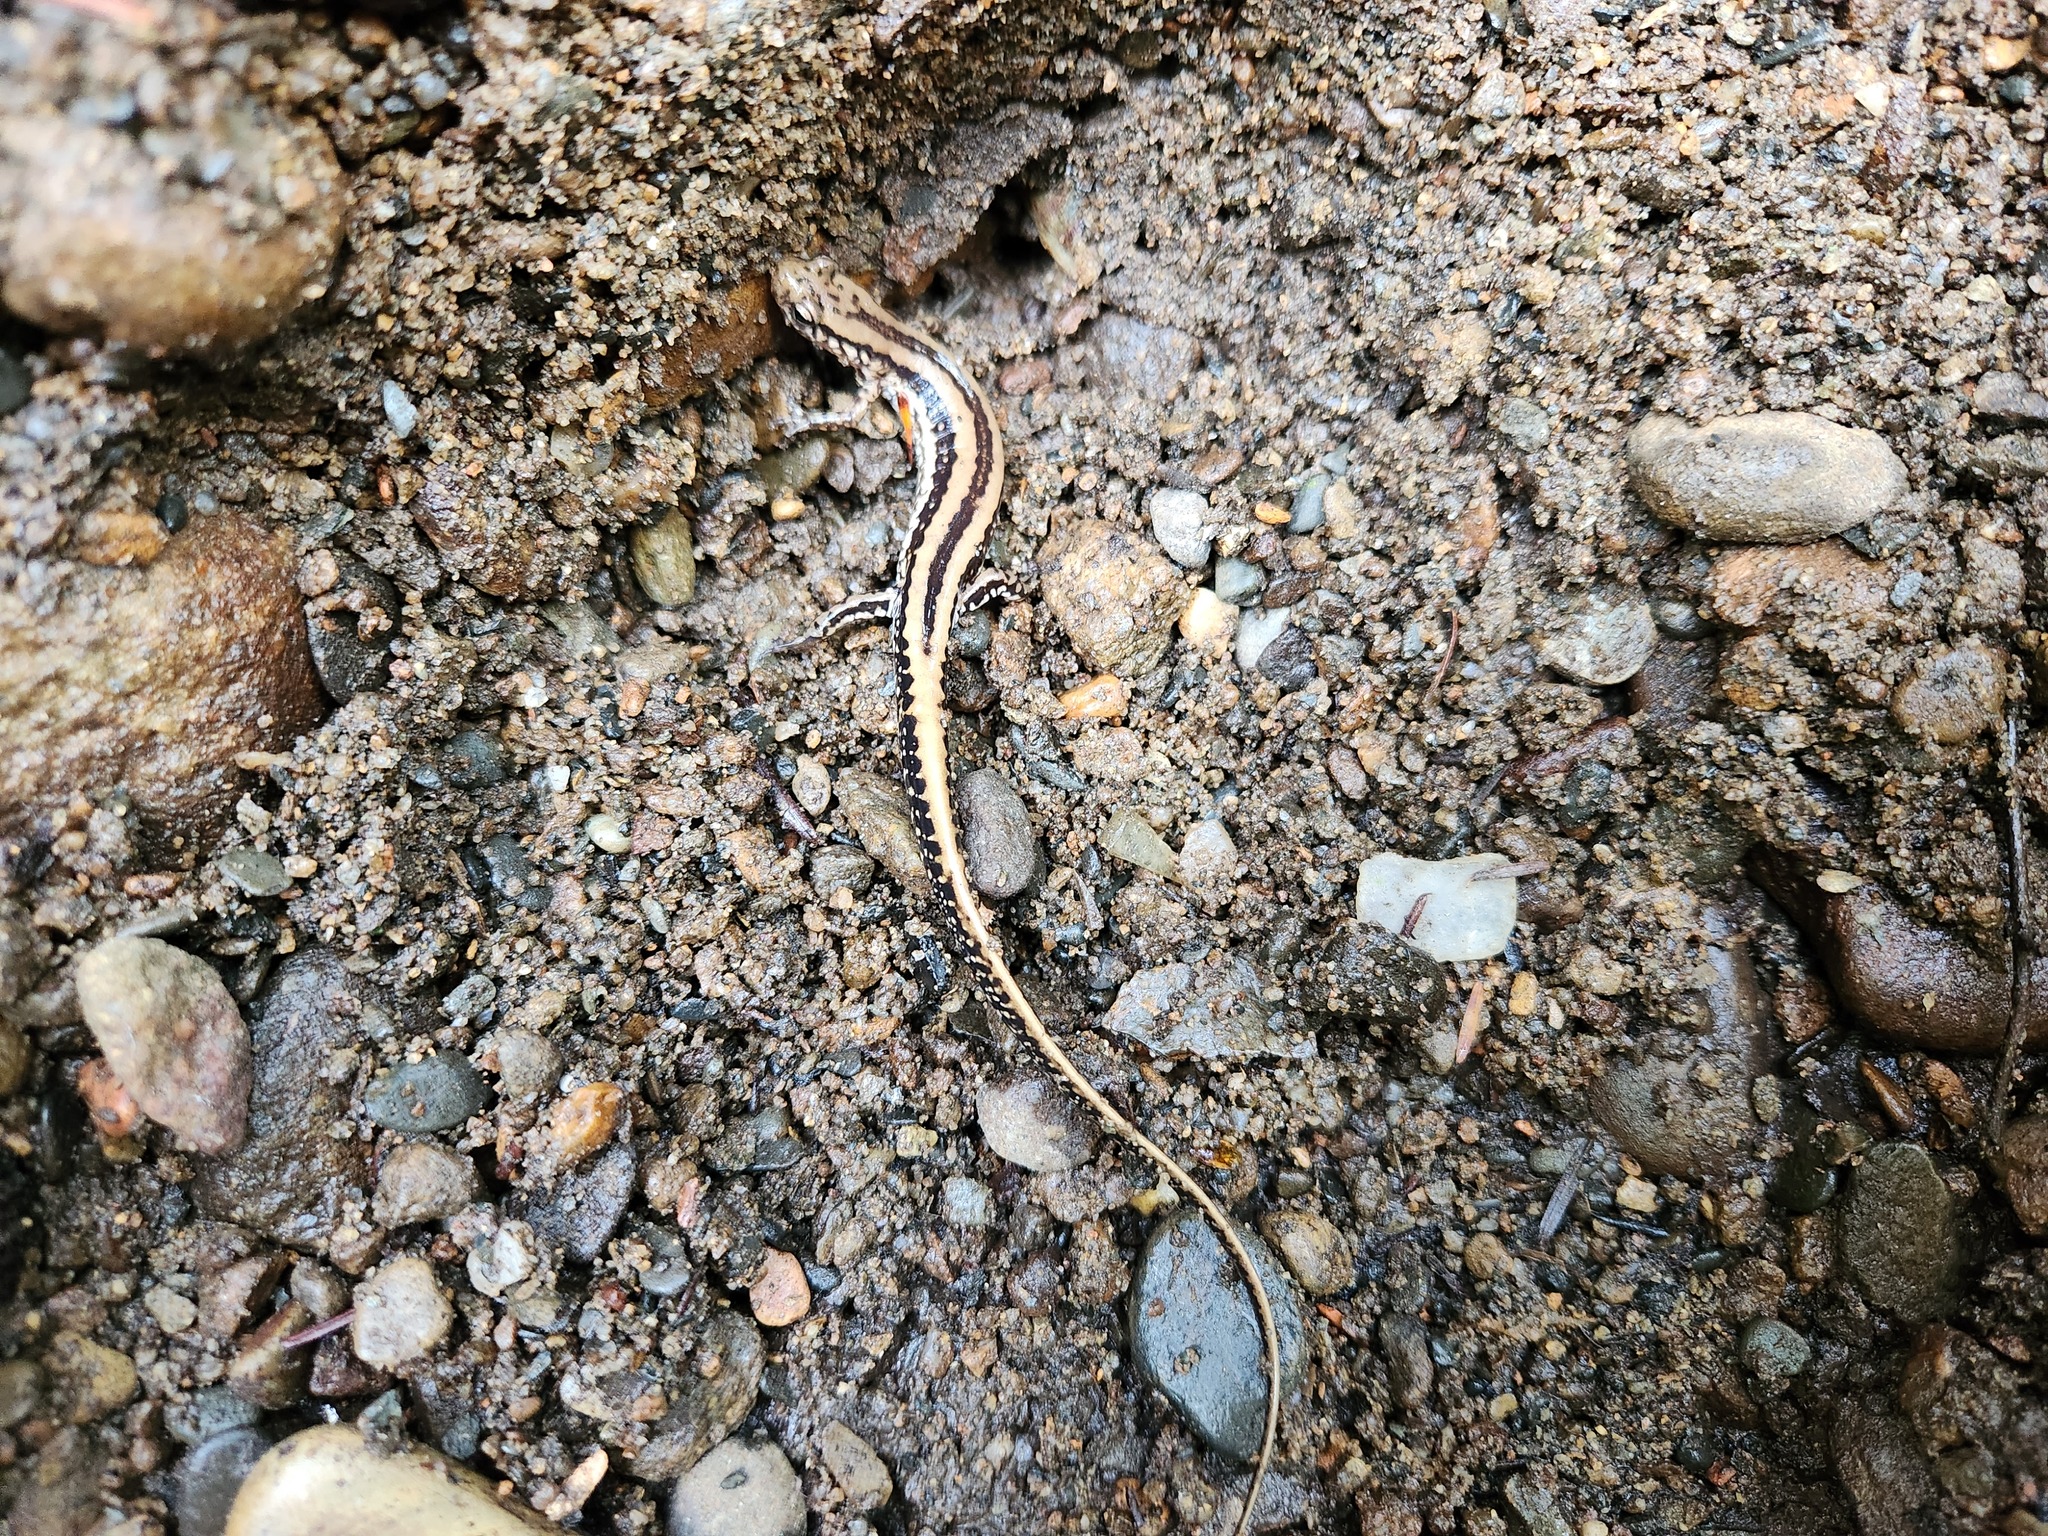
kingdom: Animalia
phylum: Chordata
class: Amphibia
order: Caudata
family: Plethodontidae
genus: Eurycea
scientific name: Eurycea guttolineata
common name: Three-lined salamander
